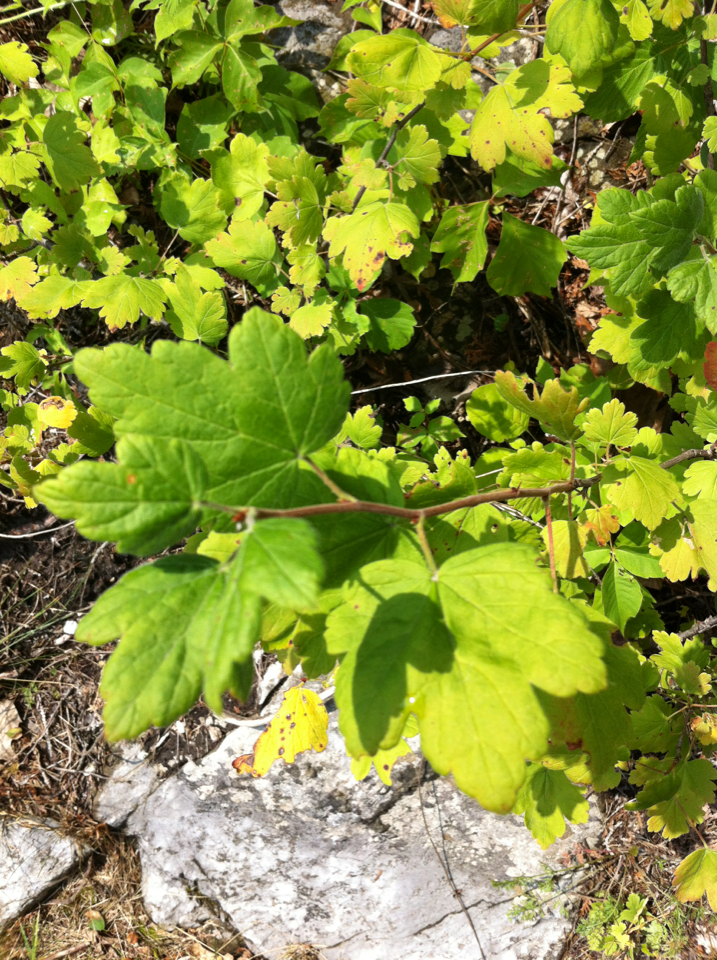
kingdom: Plantae
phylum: Tracheophyta
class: Magnoliopsida
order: Saxifragales
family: Grossulariaceae
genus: Ribes
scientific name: Ribes
